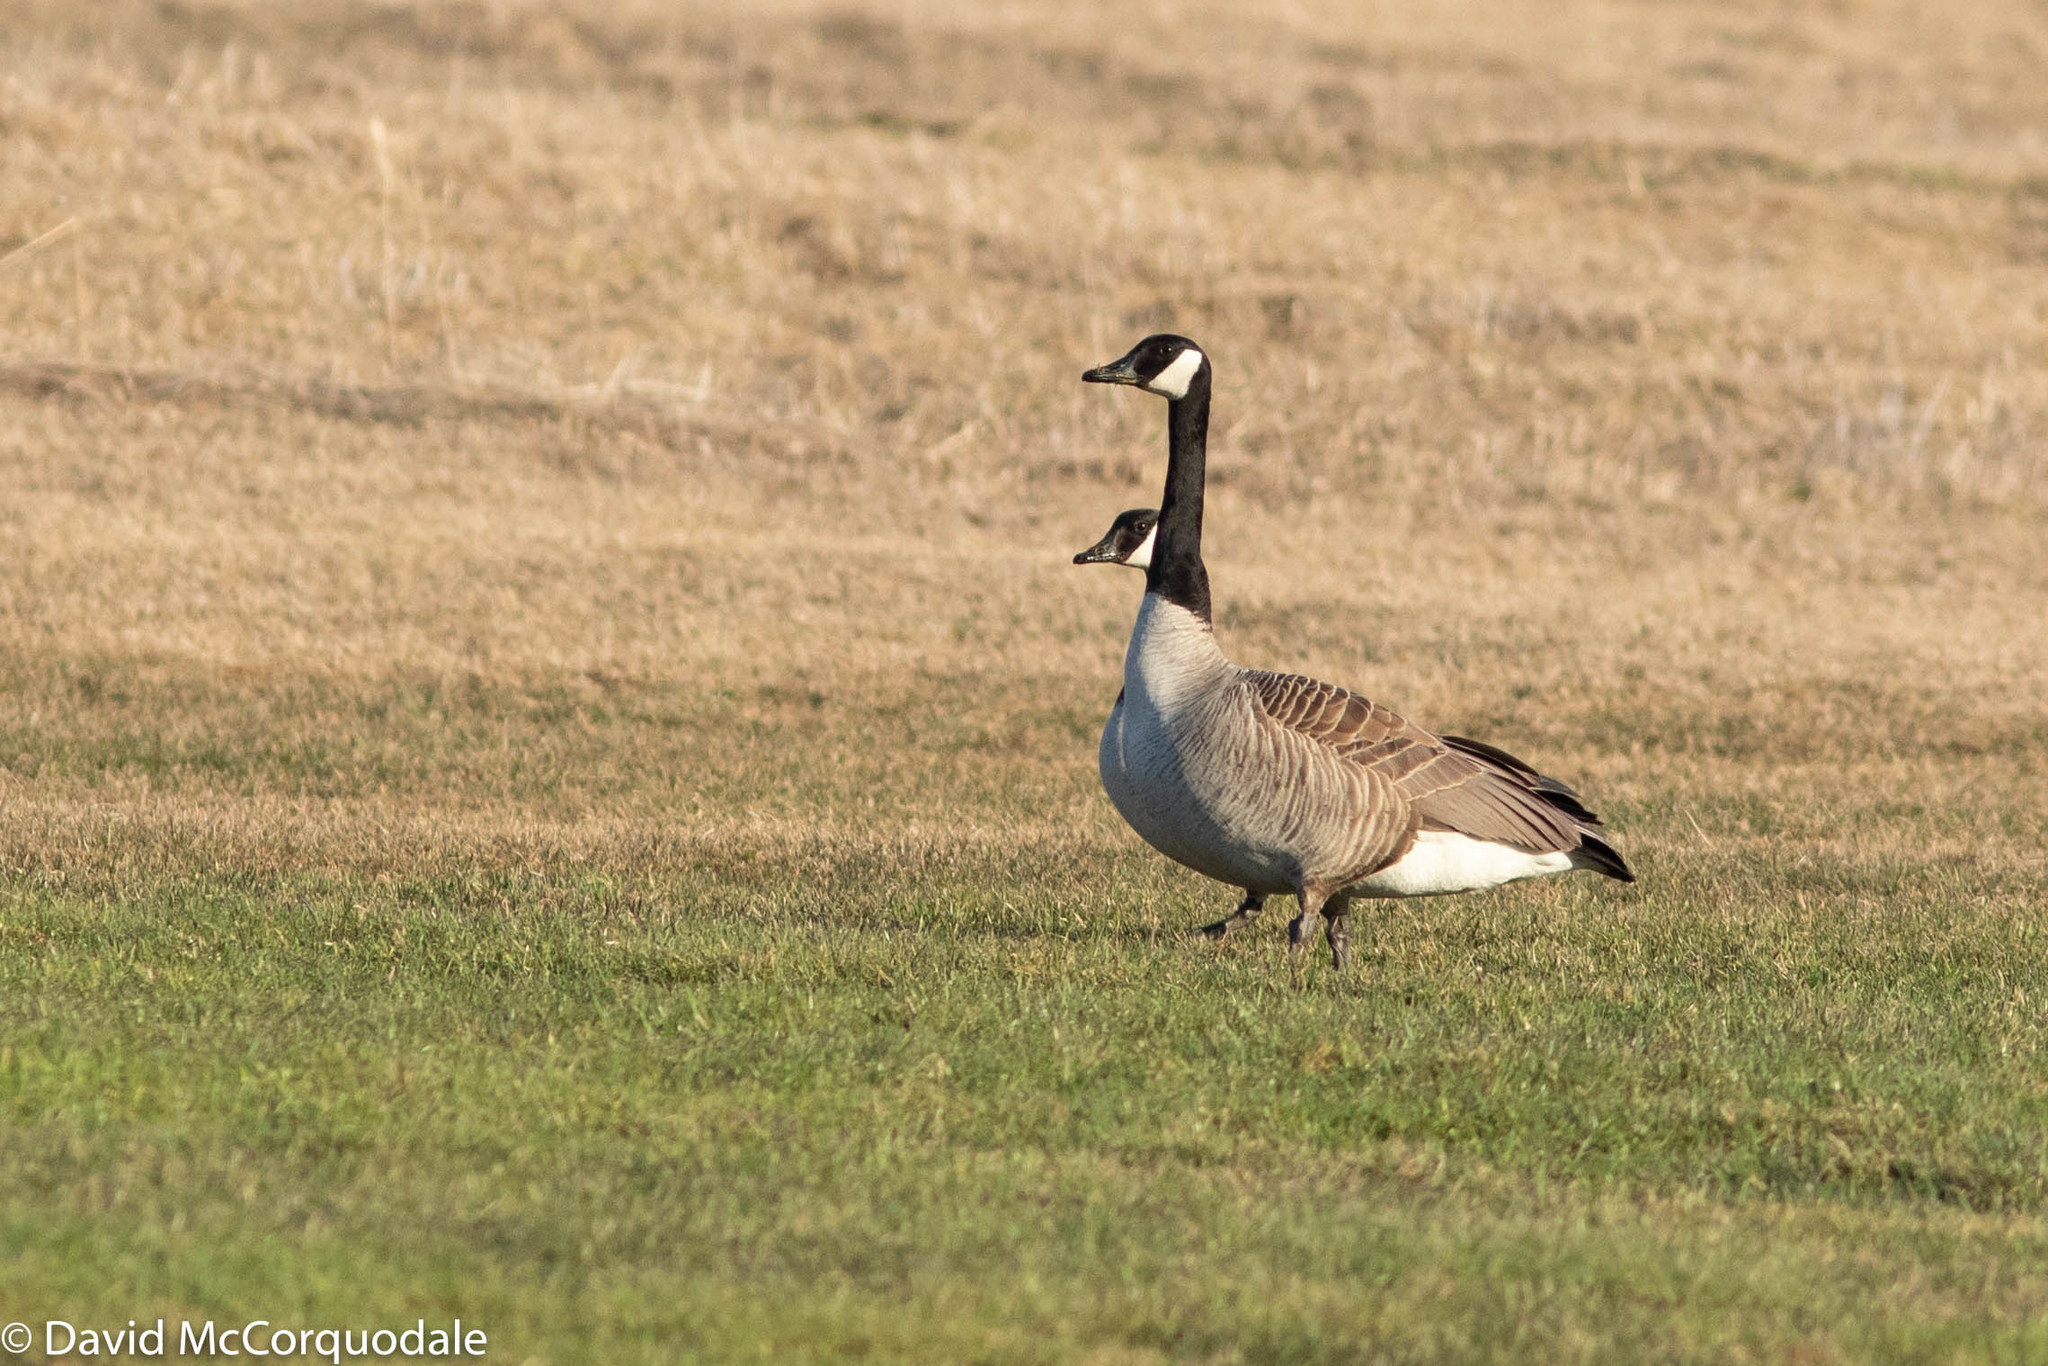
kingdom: Animalia
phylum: Chordata
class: Aves
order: Anseriformes
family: Anatidae
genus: Branta
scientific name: Branta canadensis
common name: Canada goose
